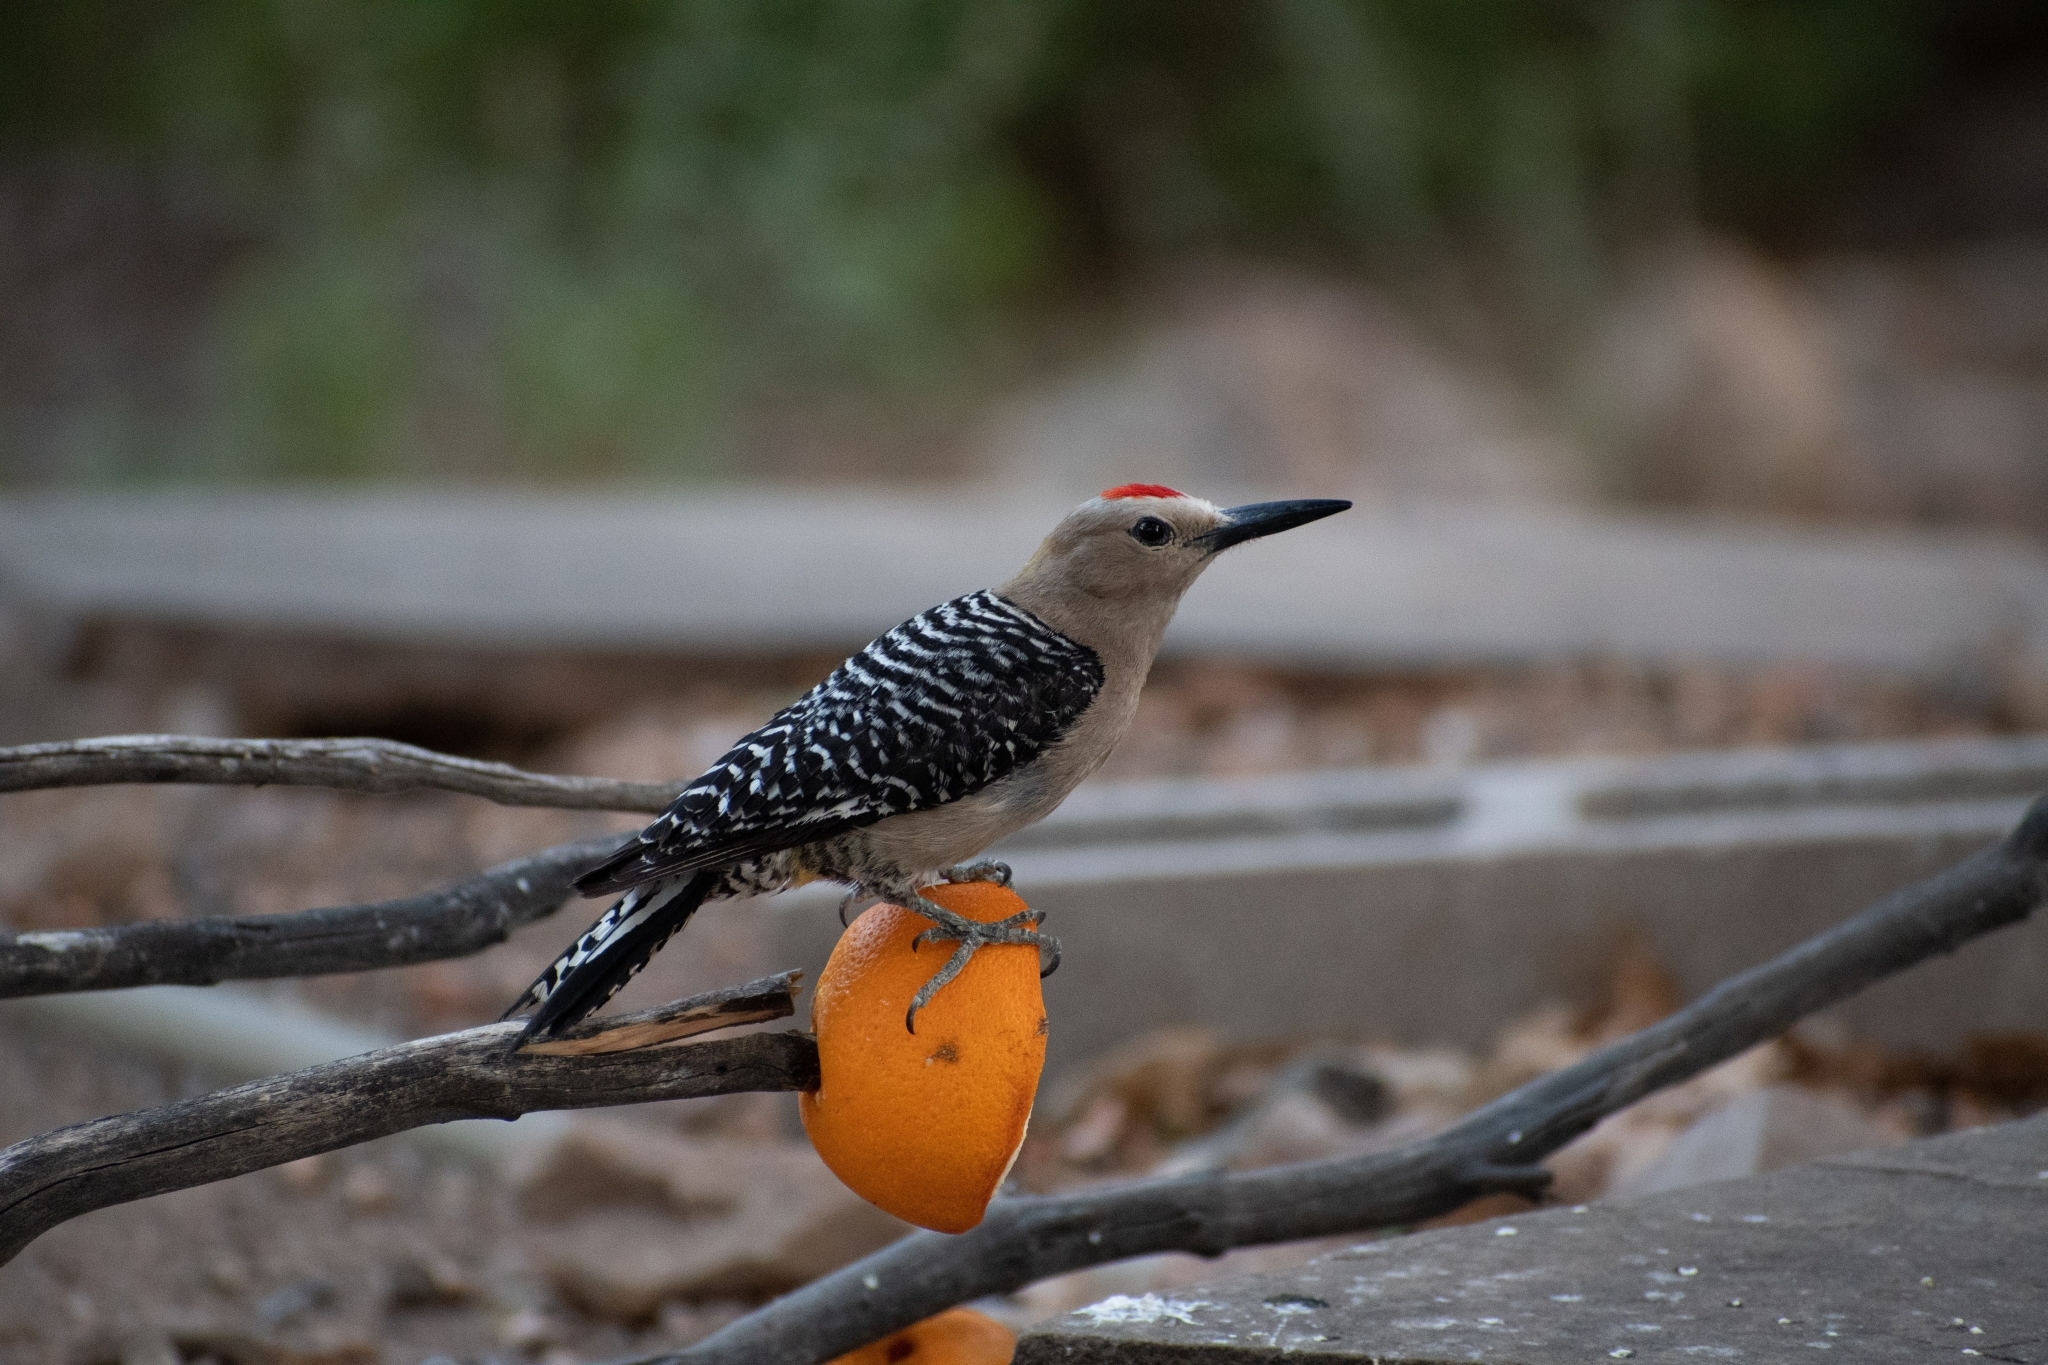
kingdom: Animalia
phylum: Chordata
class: Aves
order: Piciformes
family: Picidae
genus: Melanerpes
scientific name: Melanerpes uropygialis
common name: Gila woodpecker
